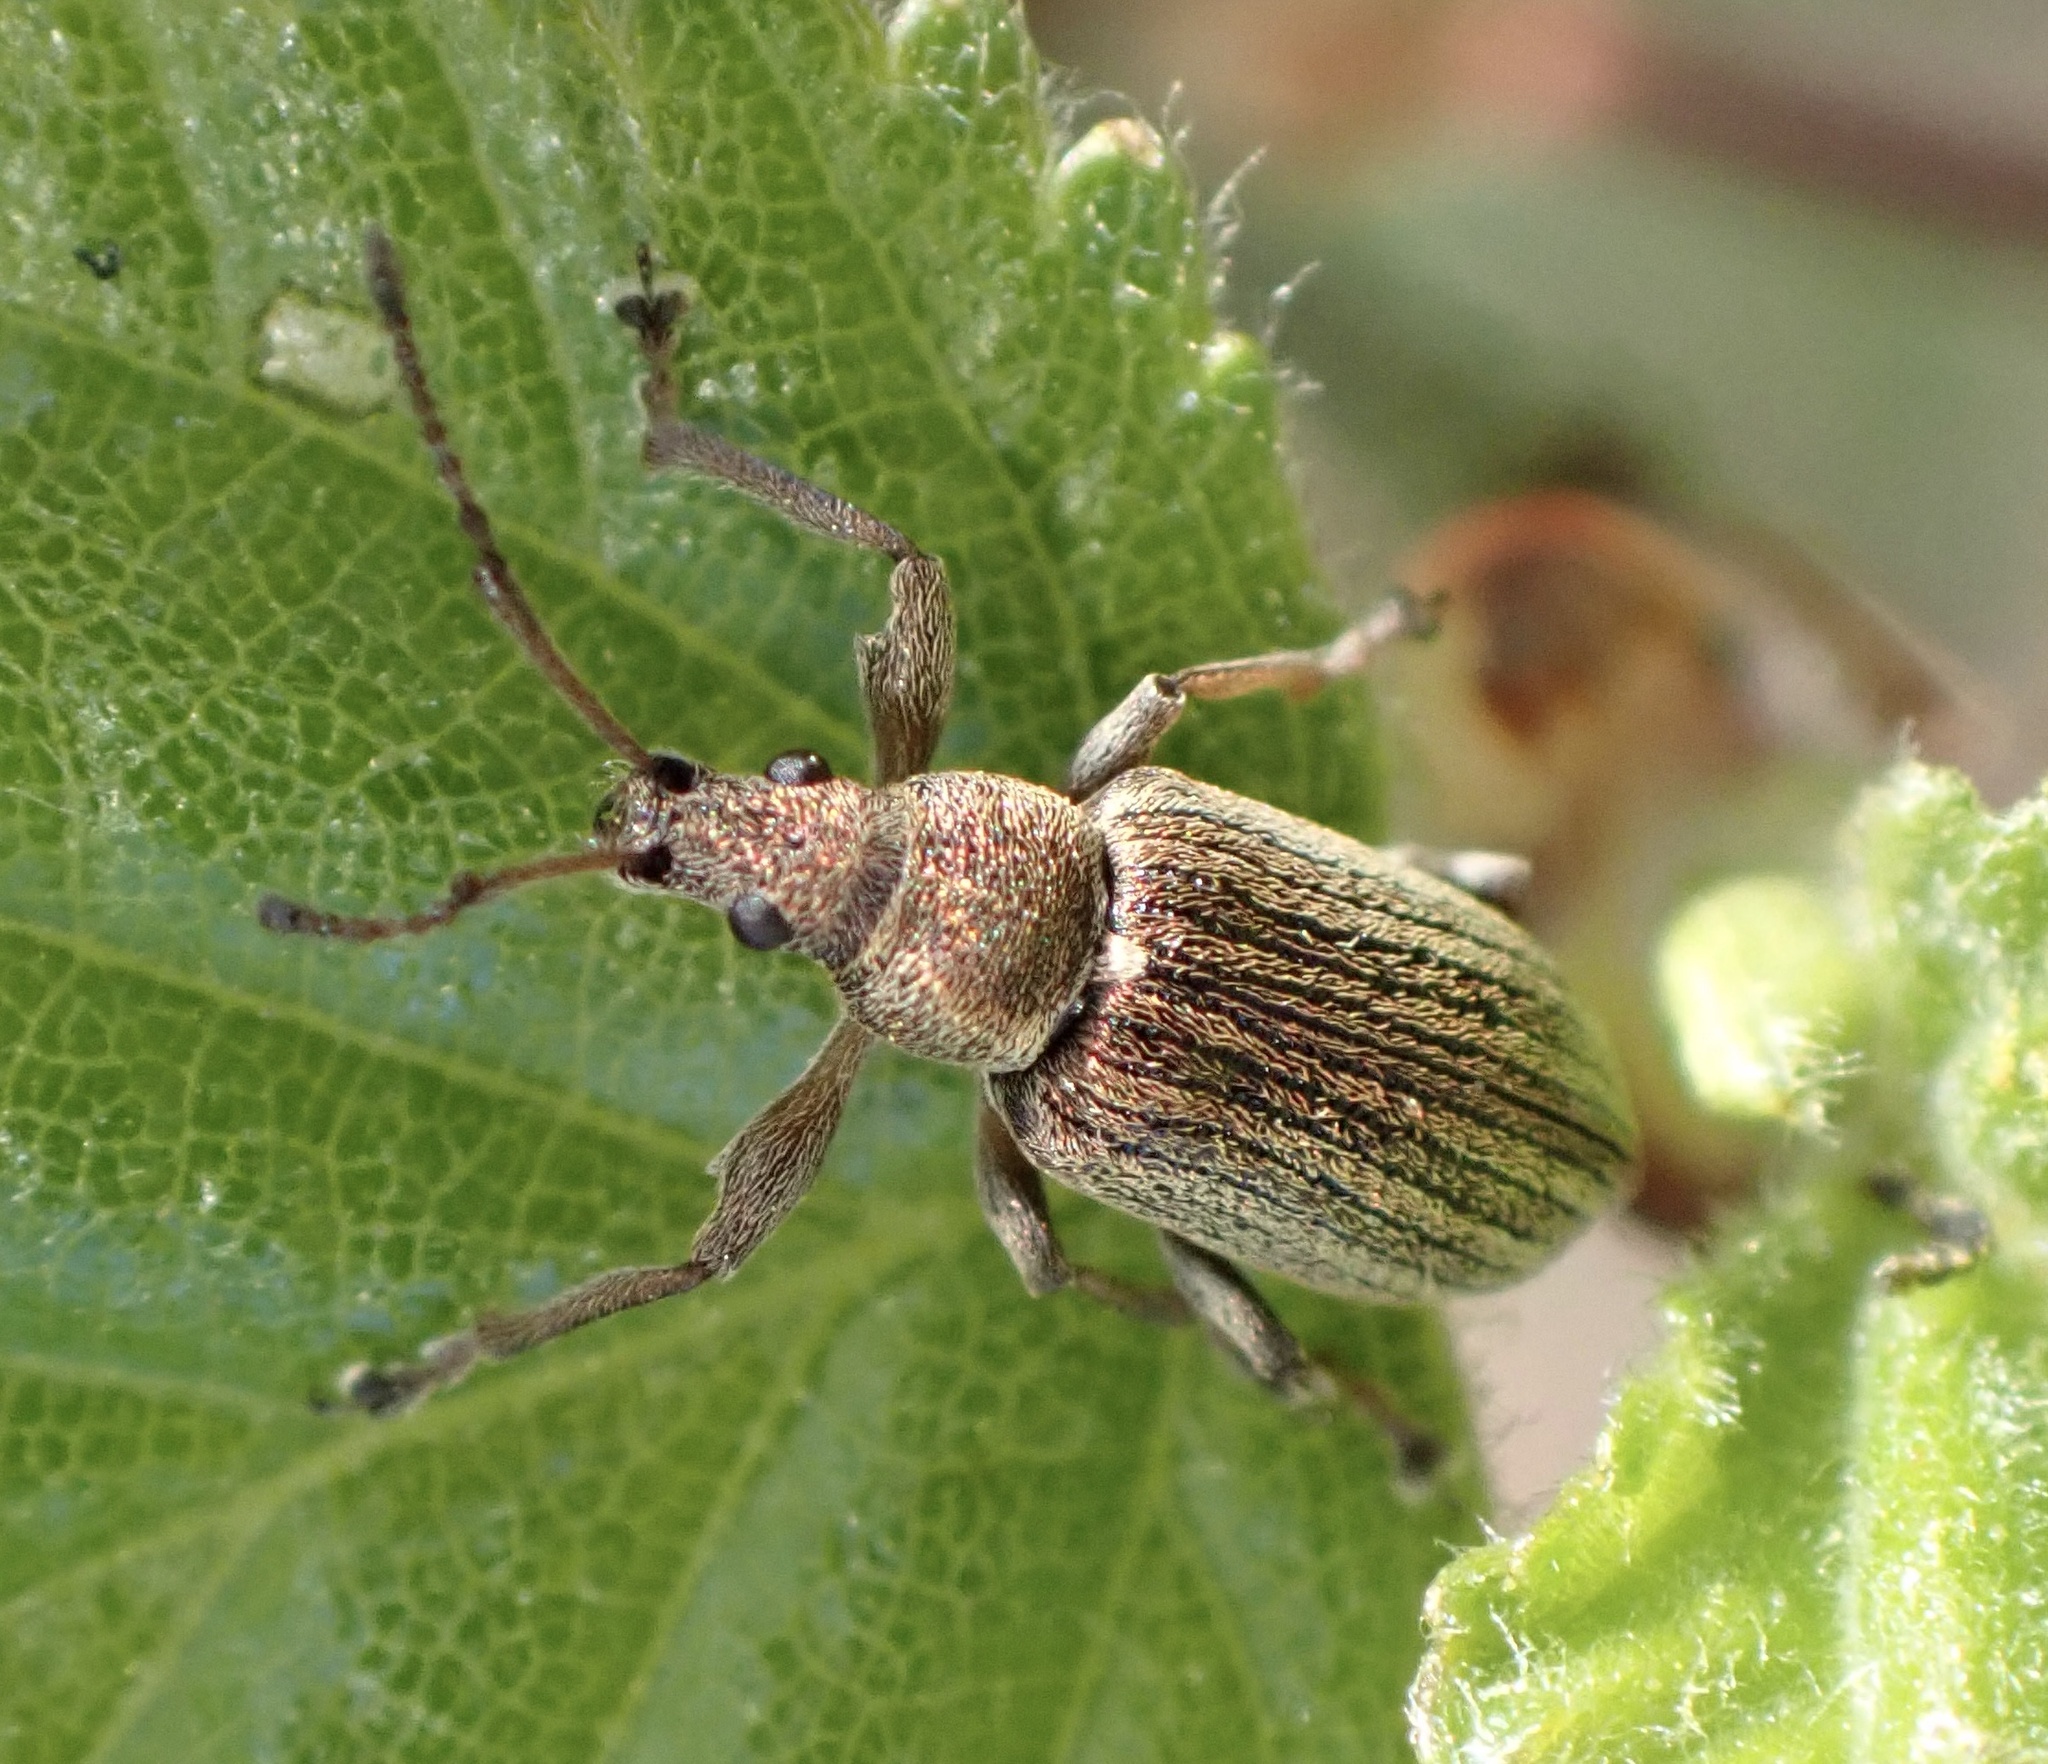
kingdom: Animalia
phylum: Arthropoda
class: Insecta
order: Coleoptera
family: Curculionidae
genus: Phyllobius
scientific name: Phyllobius pyri
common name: Common leaf weevil
